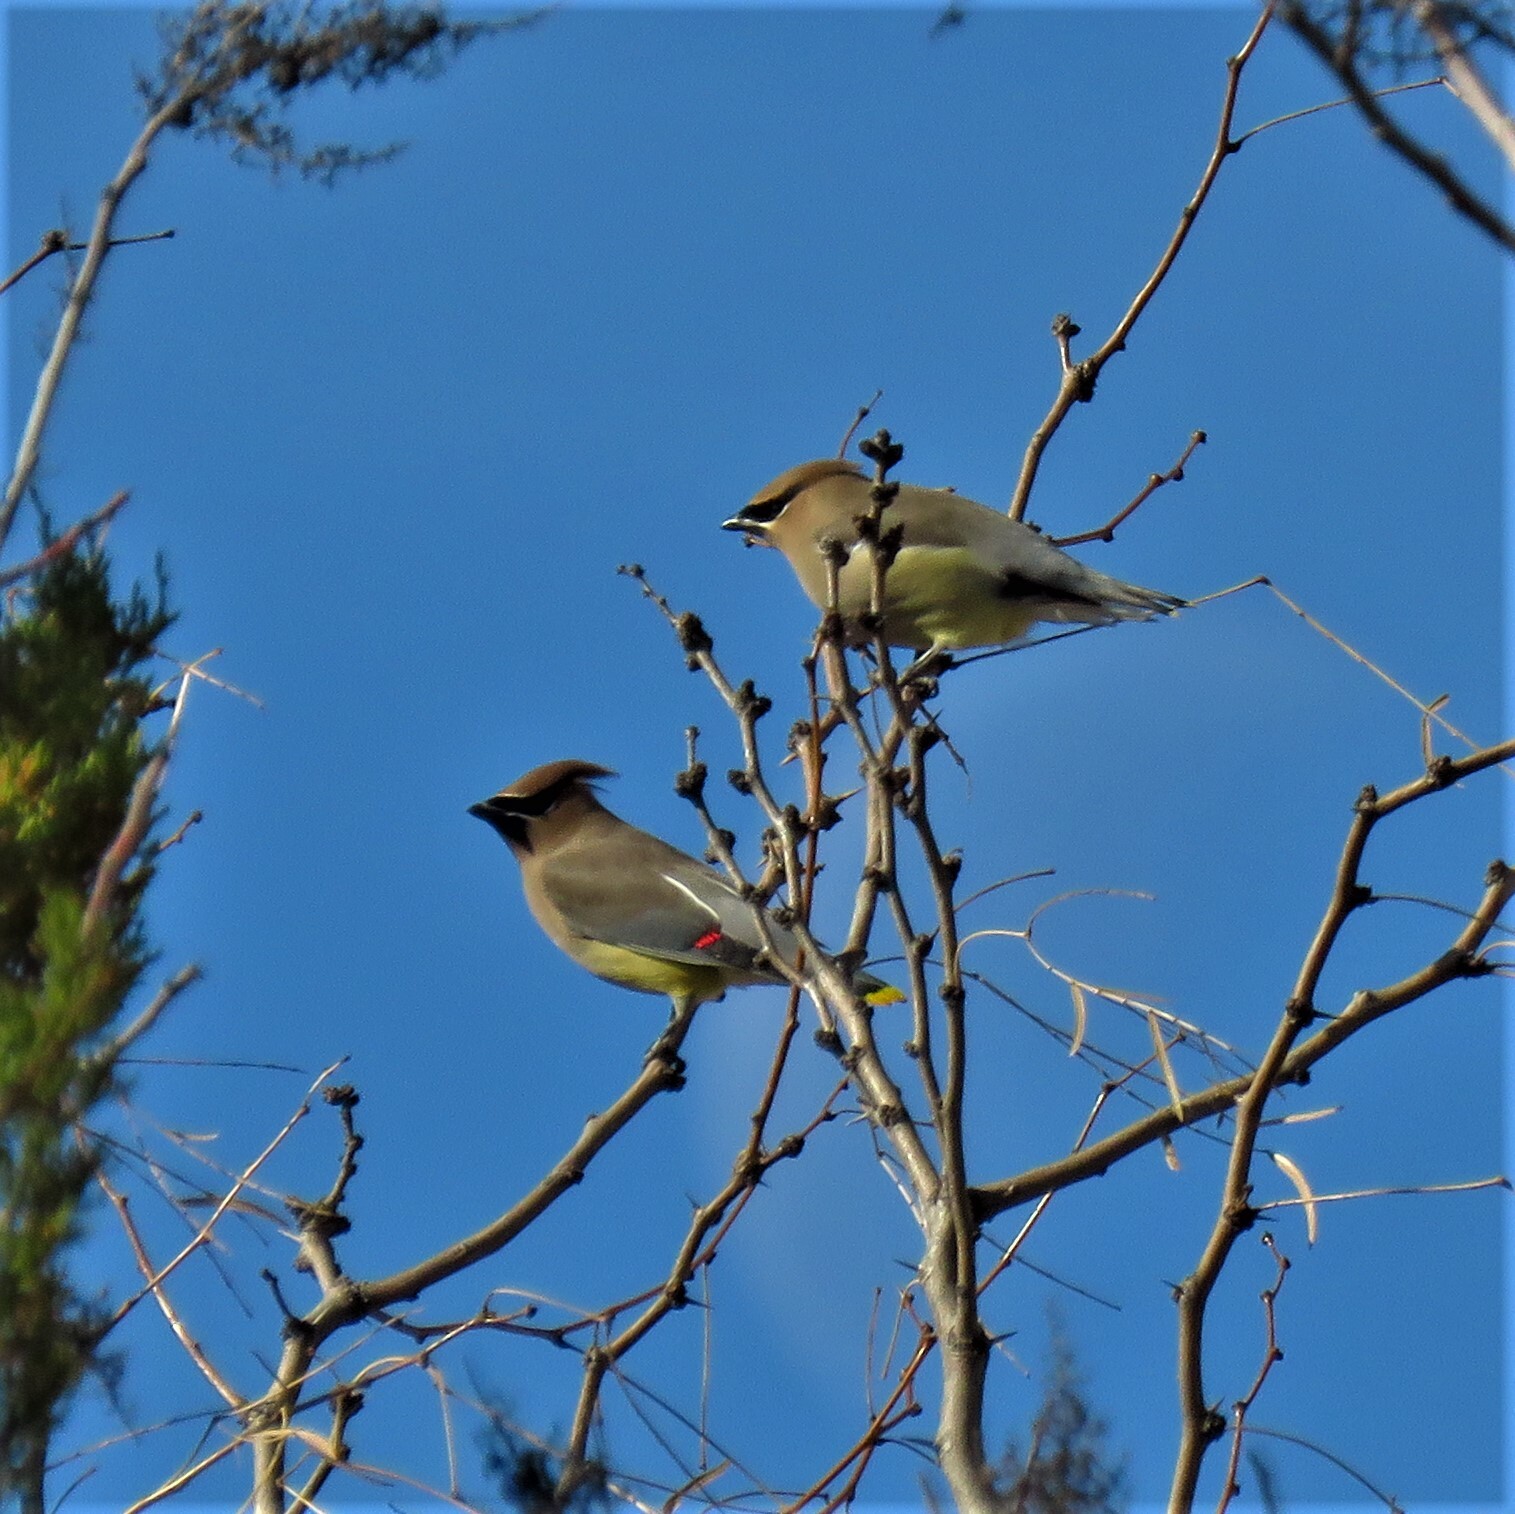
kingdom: Animalia
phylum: Chordata
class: Aves
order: Passeriformes
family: Bombycillidae
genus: Bombycilla
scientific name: Bombycilla cedrorum
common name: Cedar waxwing
